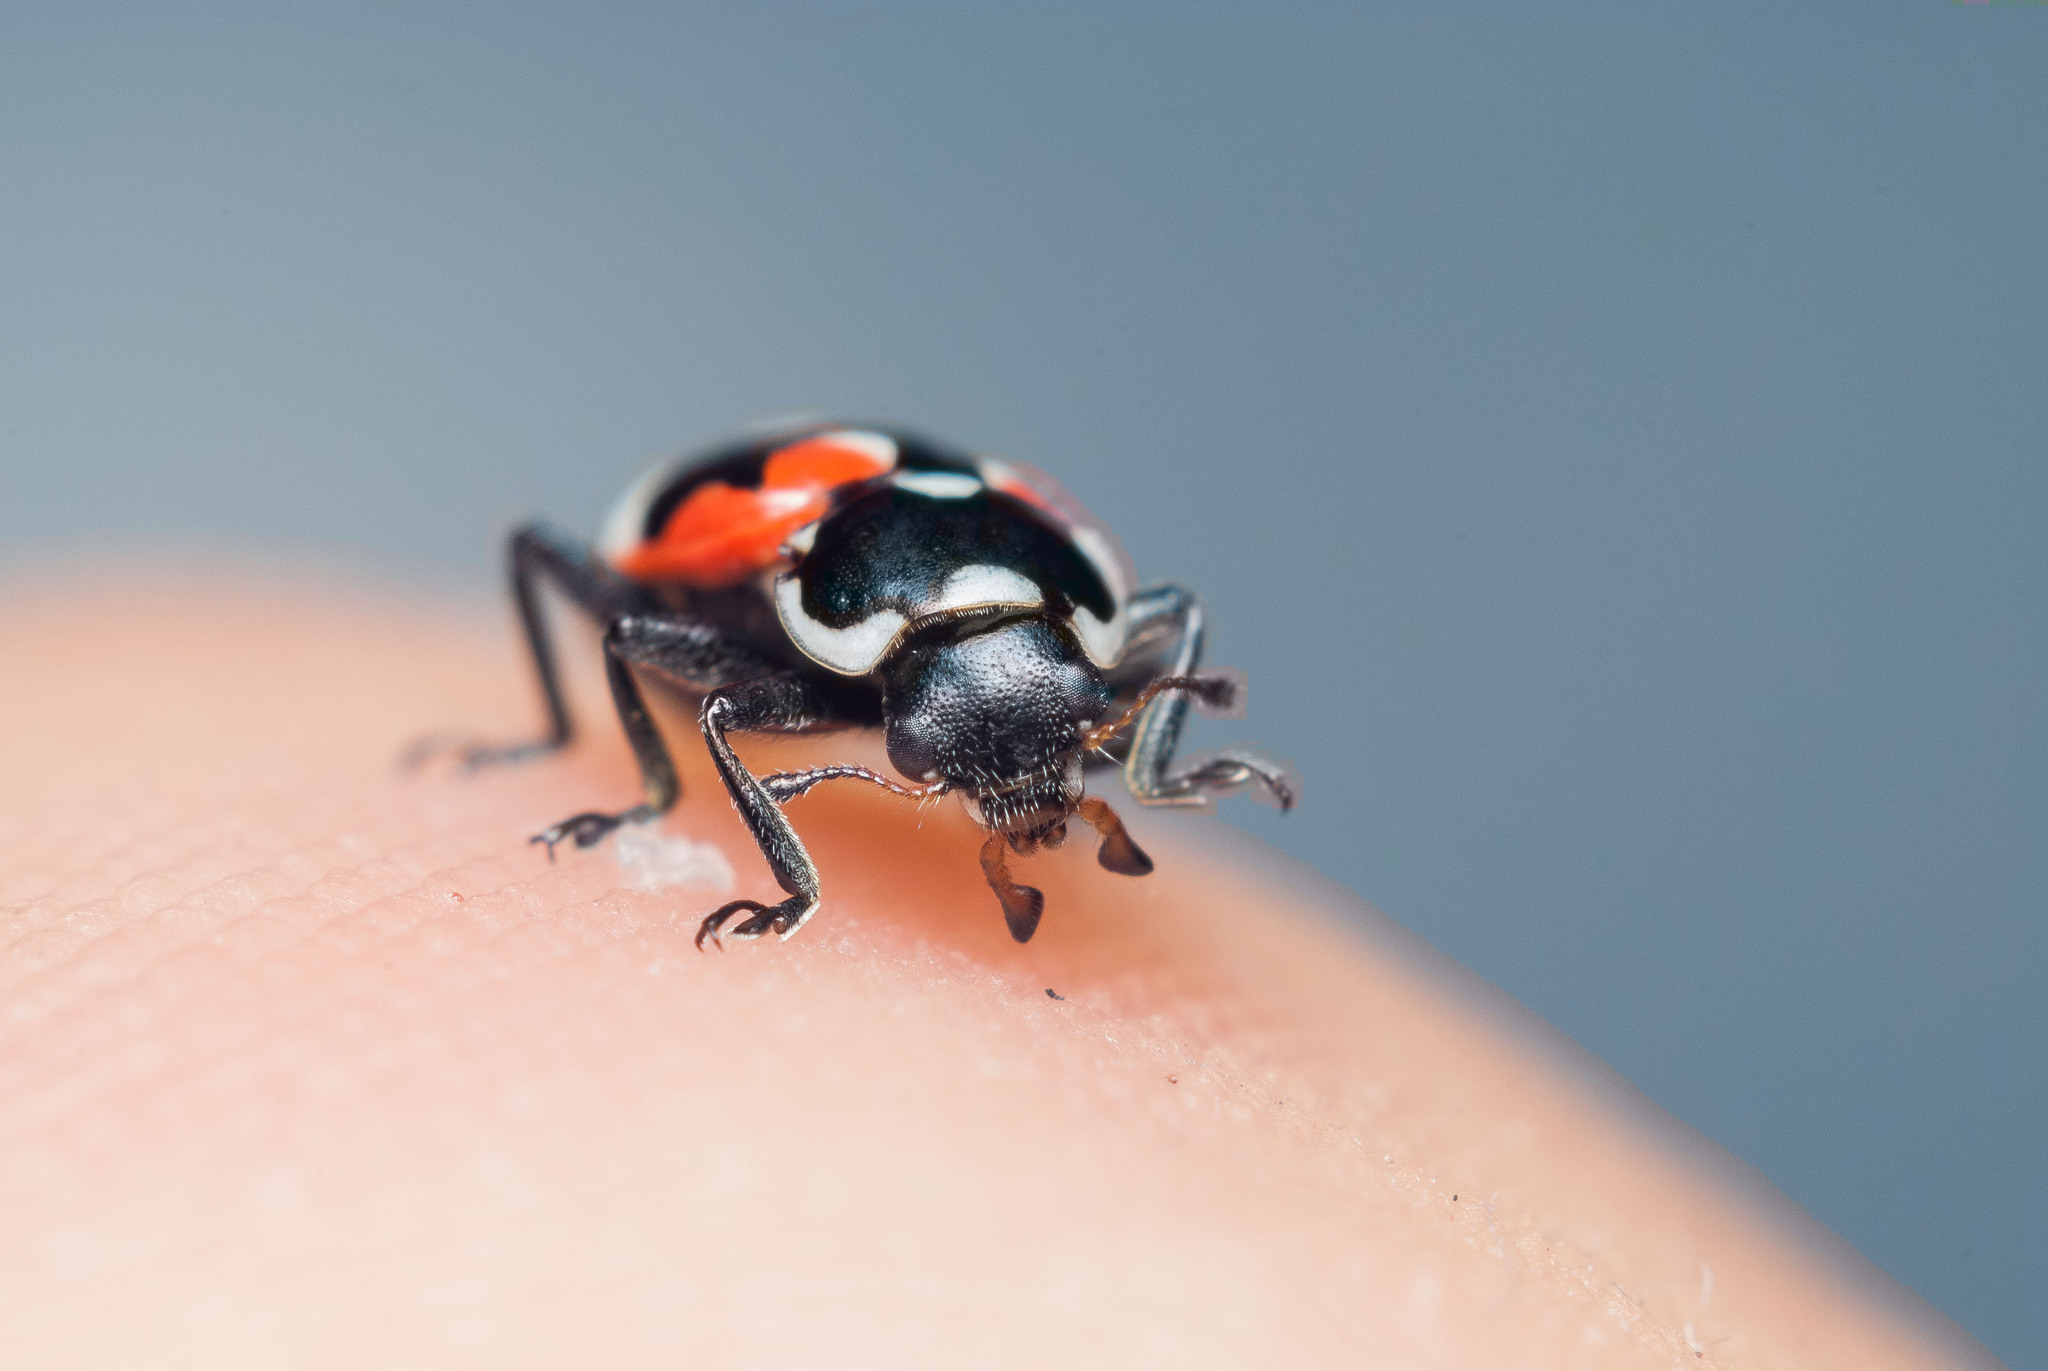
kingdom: Animalia
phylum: Arthropoda
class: Insecta
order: Coleoptera
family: Coccinellidae
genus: Eriopis
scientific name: Eriopis punicola
